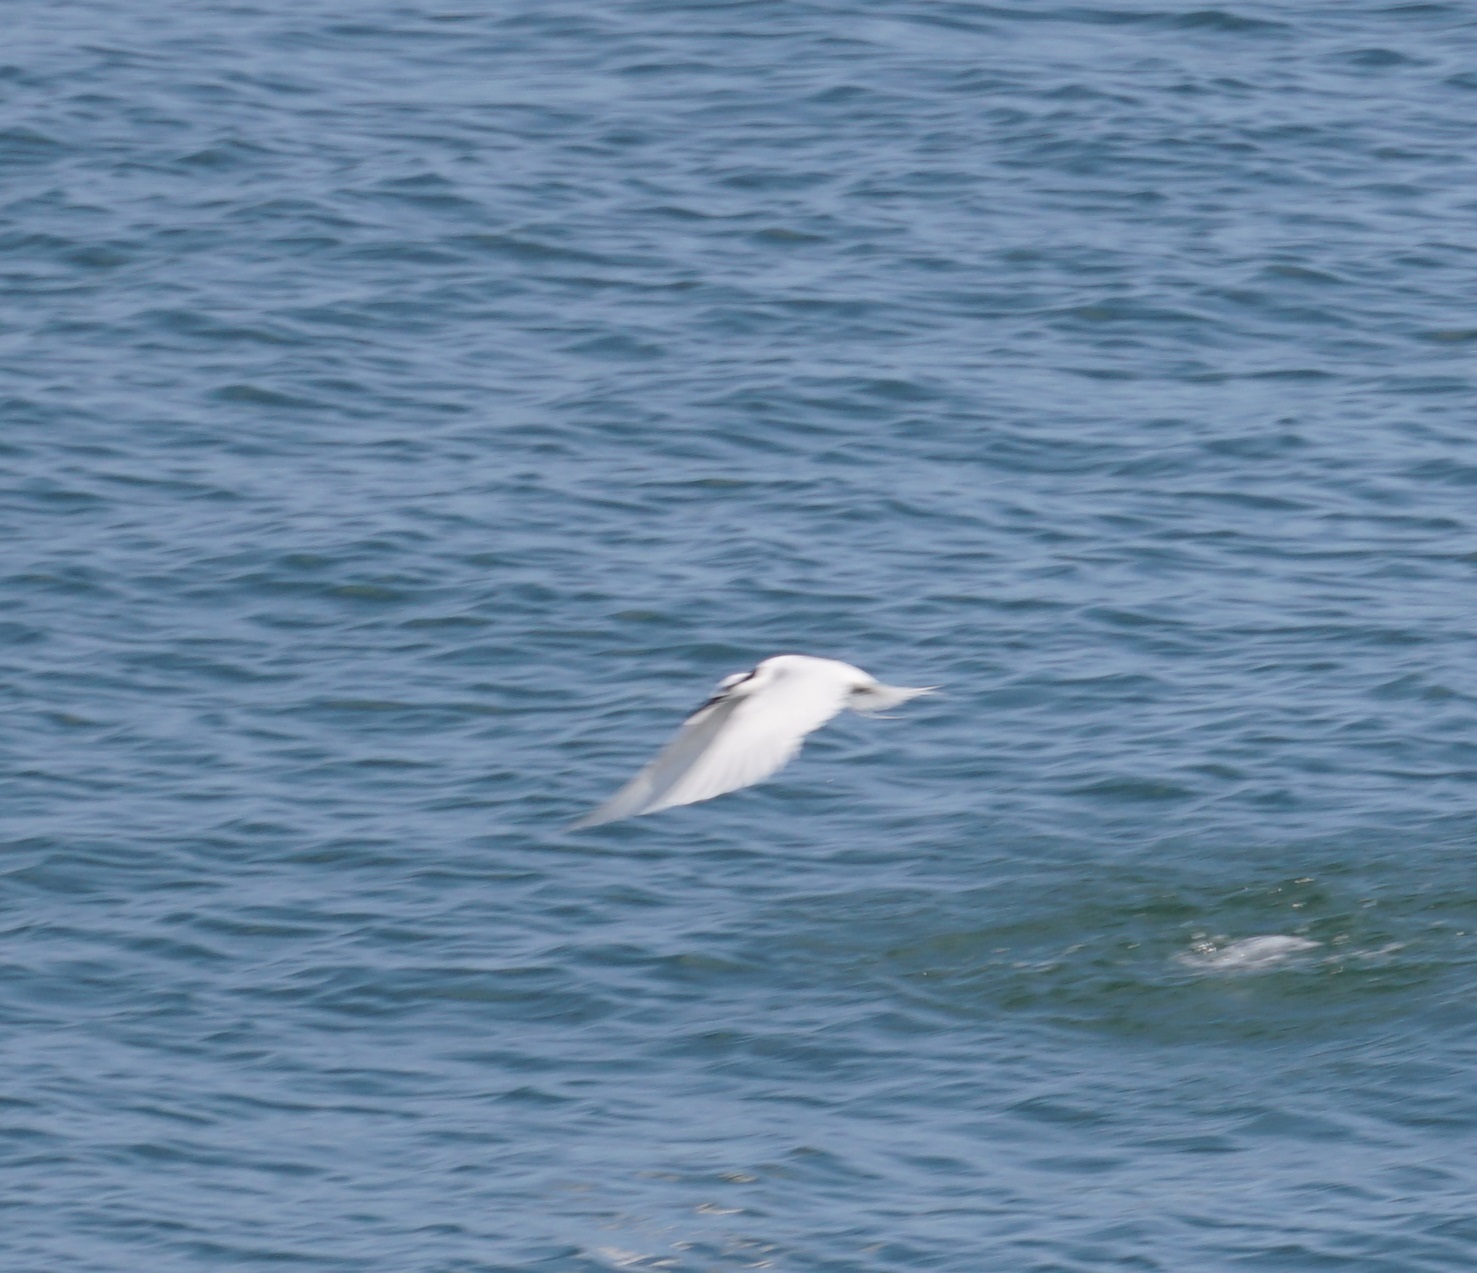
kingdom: Animalia
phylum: Chordata
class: Aves
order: Charadriiformes
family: Laridae
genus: Sterna
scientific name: Sterna sumatrana
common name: Black-naped tern
